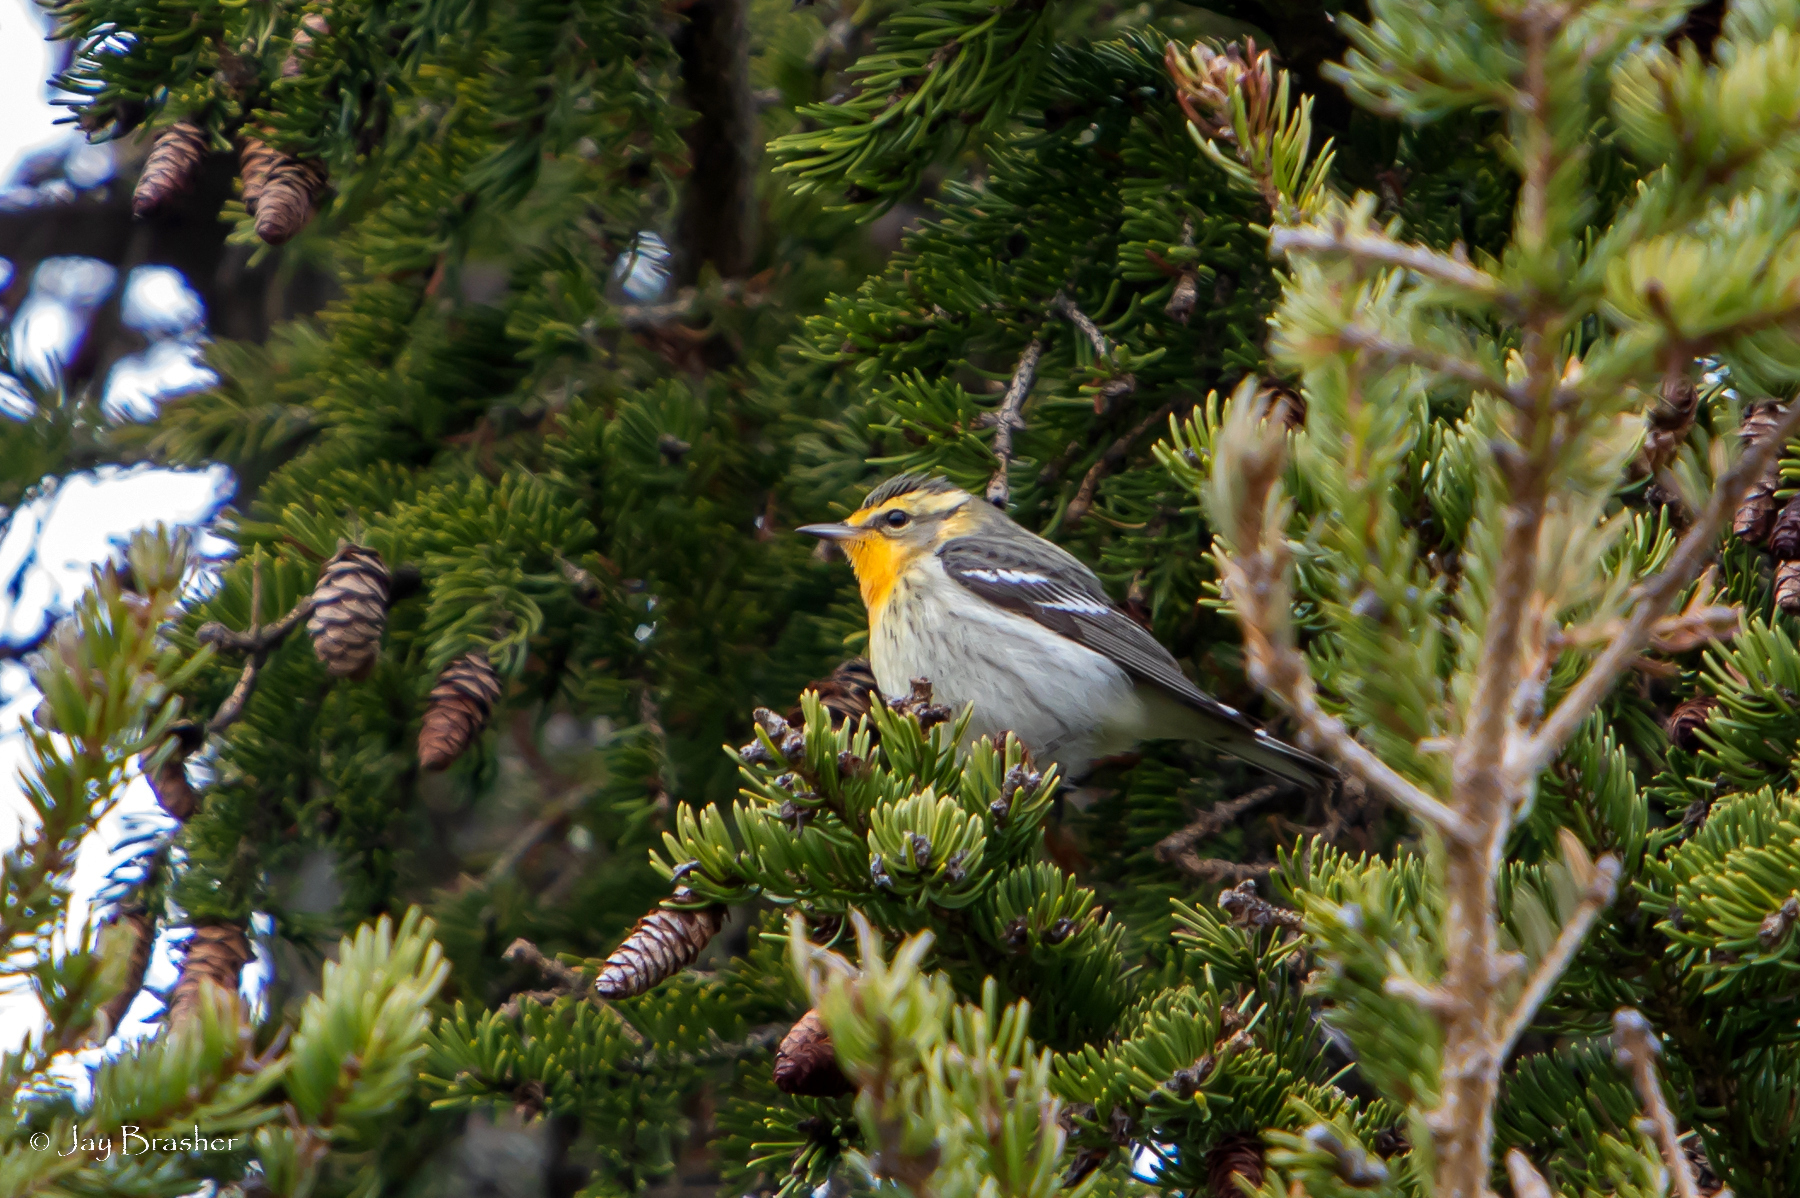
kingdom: Animalia
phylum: Chordata
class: Aves
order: Passeriformes
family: Parulidae
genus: Setophaga
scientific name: Setophaga fusca
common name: Blackburnian warbler
